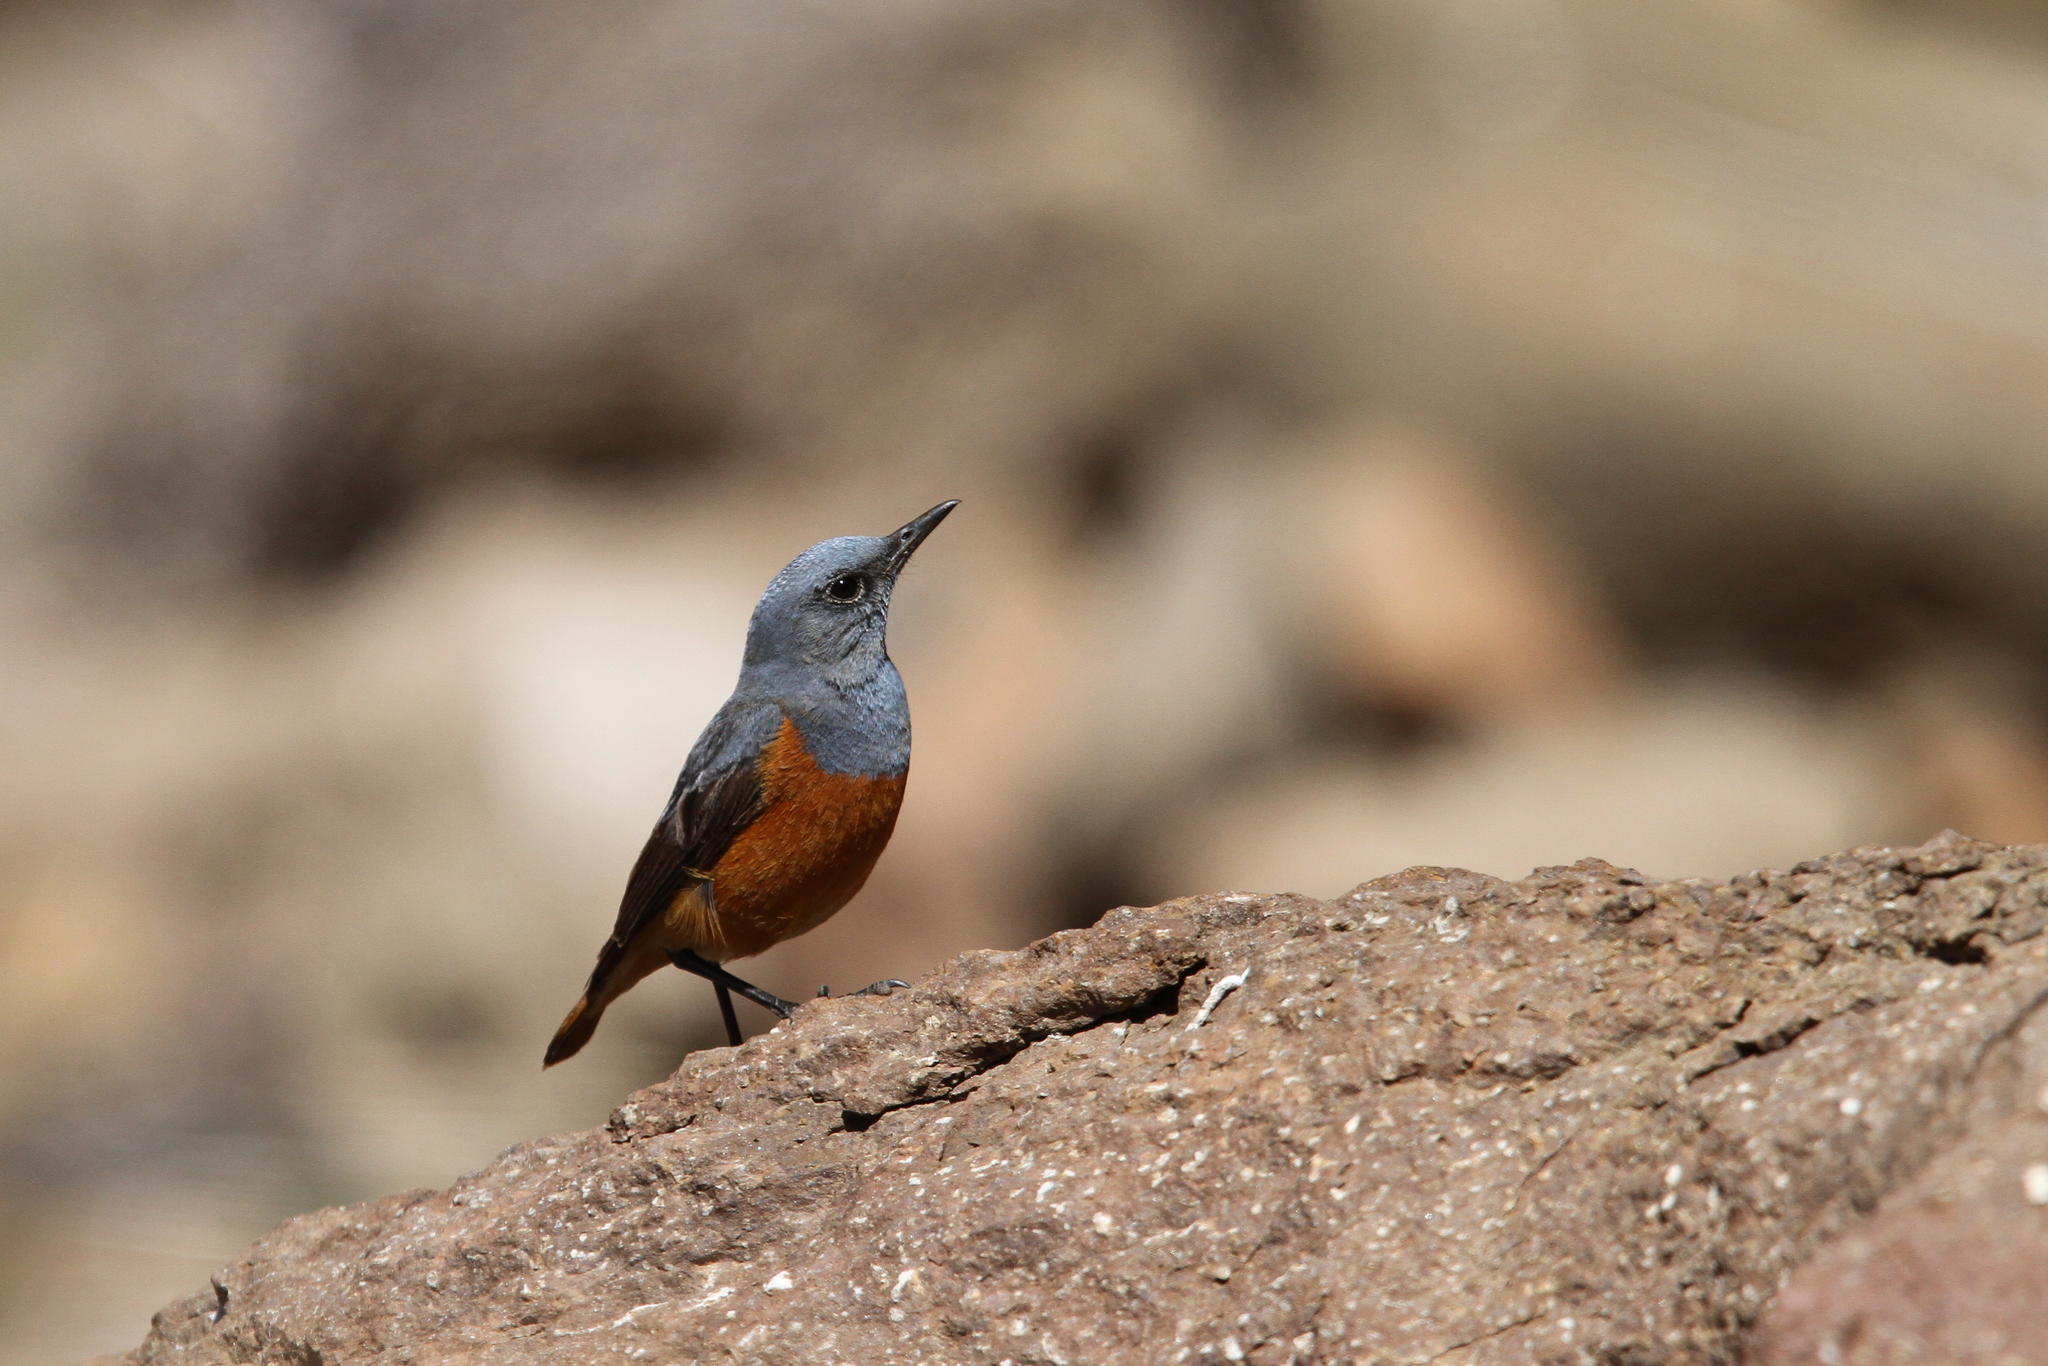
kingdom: Animalia
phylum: Chordata
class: Aves
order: Passeriformes
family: Muscicapidae
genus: Monticola
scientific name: Monticola explorator
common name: Sentinel rock thrush
